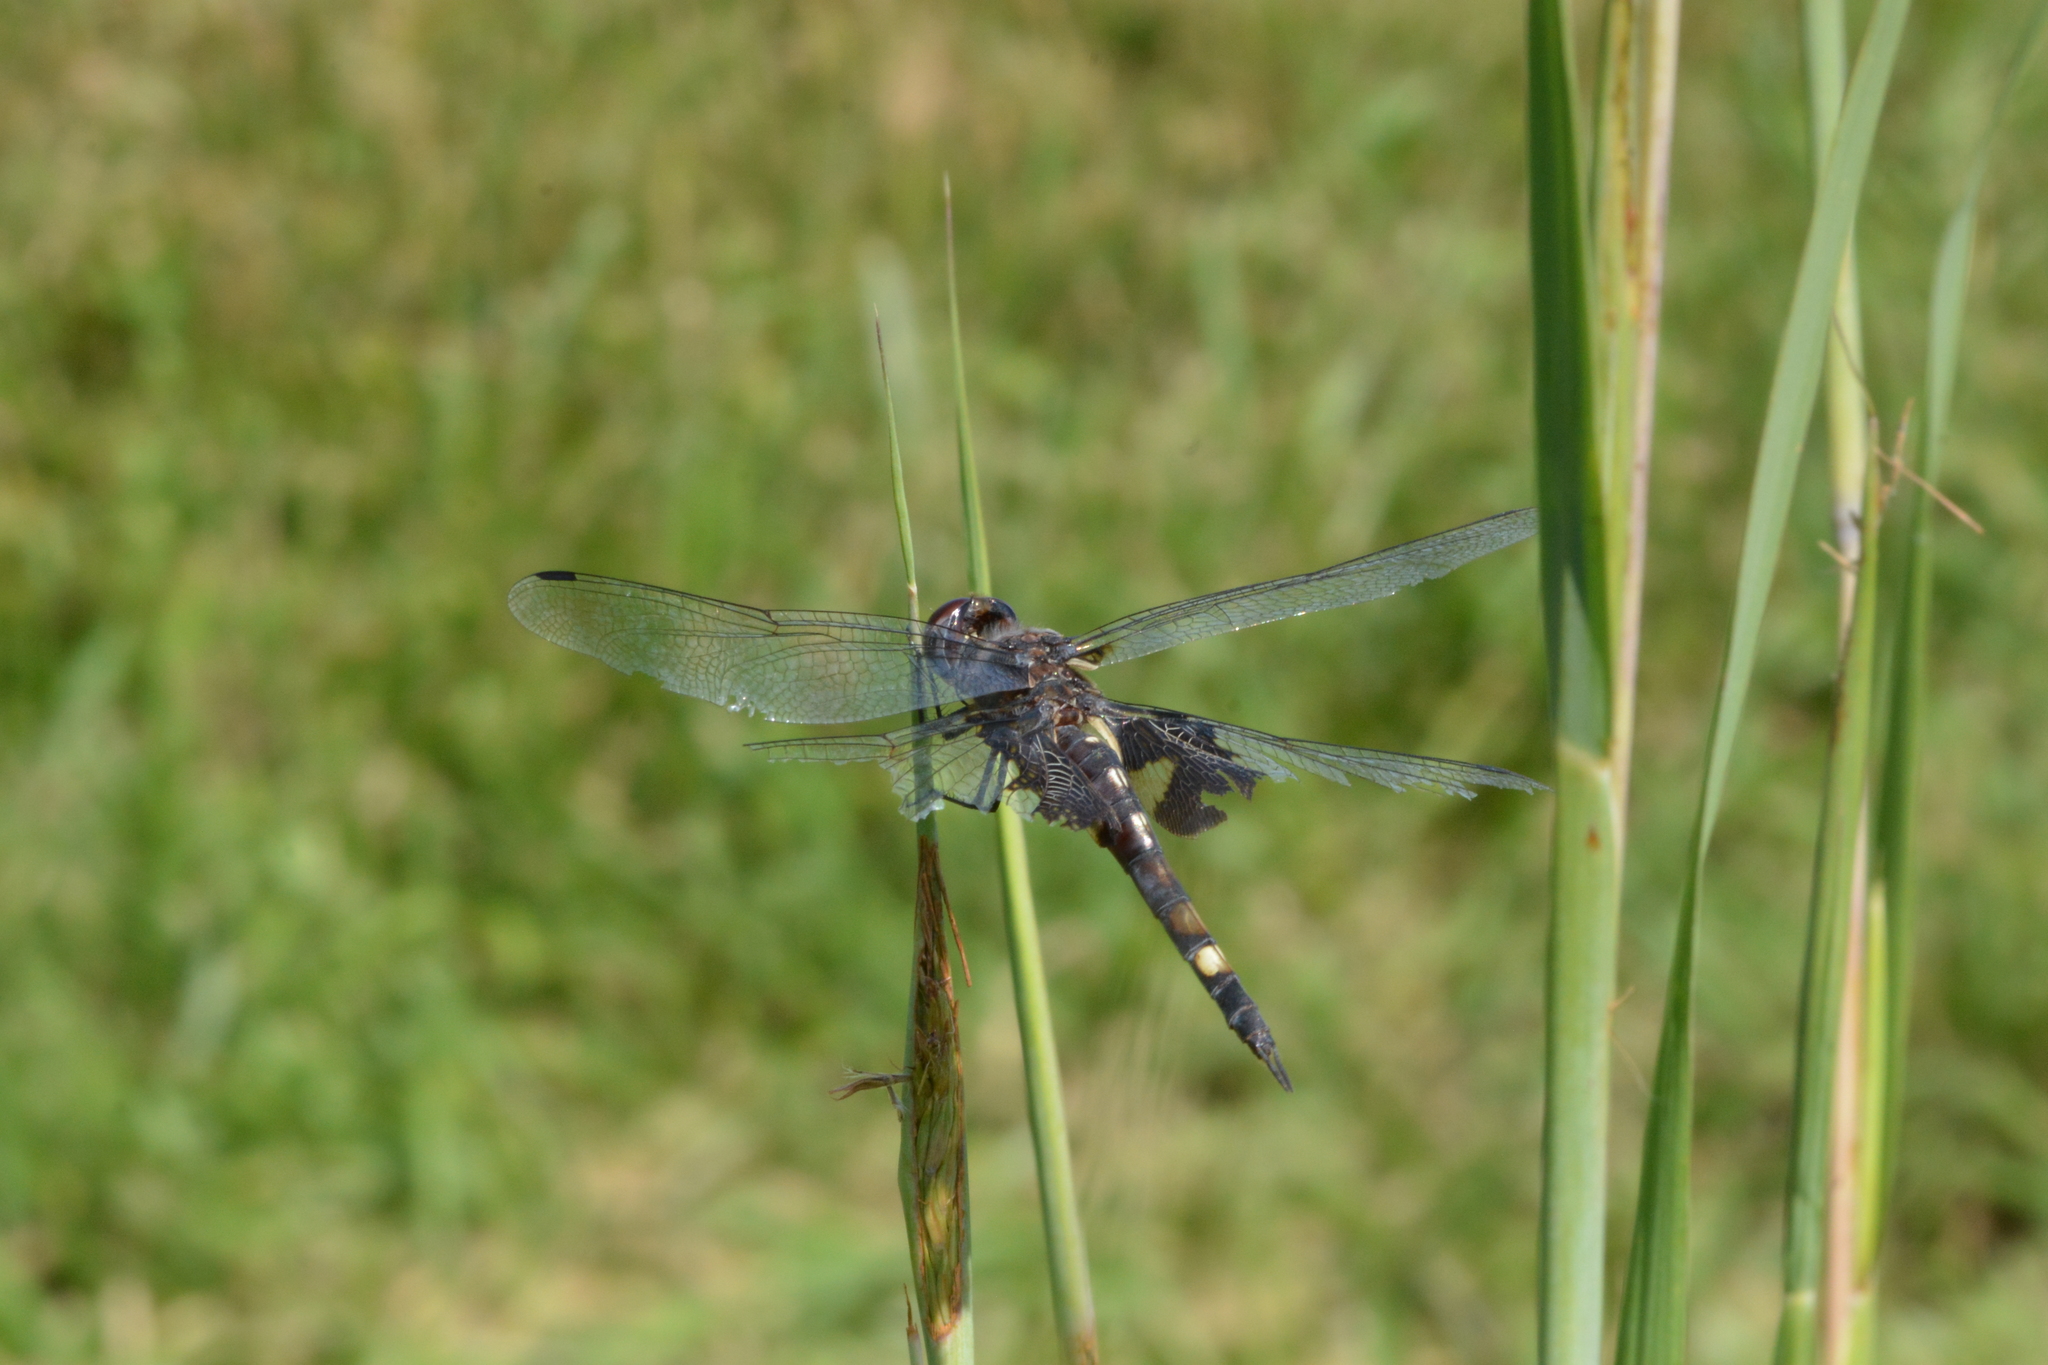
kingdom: Animalia
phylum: Arthropoda
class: Insecta
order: Odonata
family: Libellulidae
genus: Tramea
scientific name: Tramea lacerata
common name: Black saddlebags
